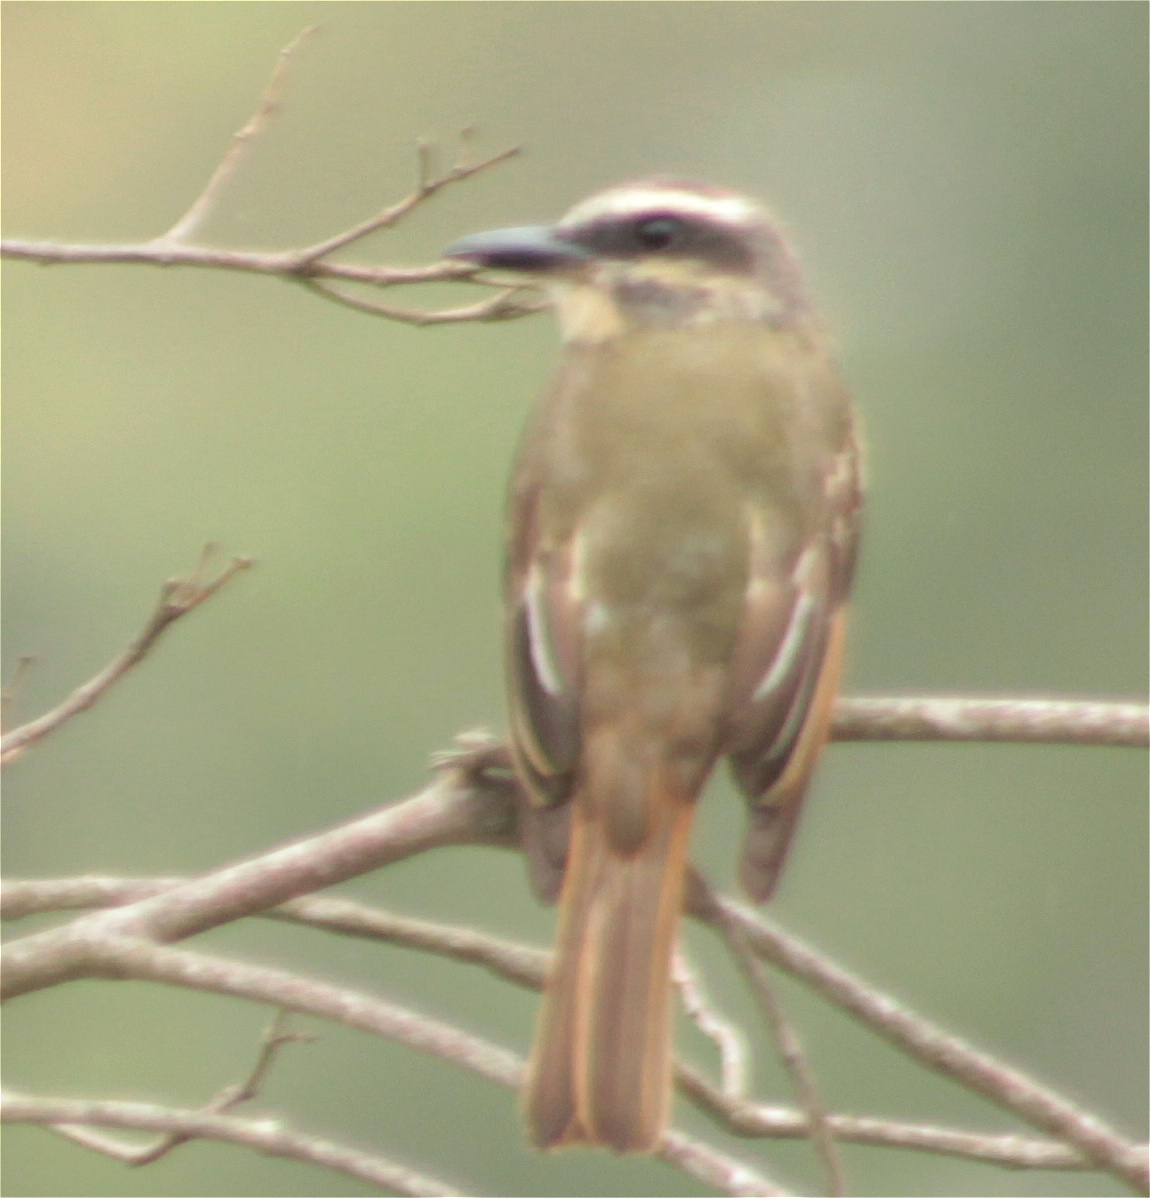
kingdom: Animalia
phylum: Chordata
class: Aves
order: Passeriformes
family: Tyrannidae
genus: Myiodynastes
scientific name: Myiodynastes hemichrysus
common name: Golden-bellied flycatcher
